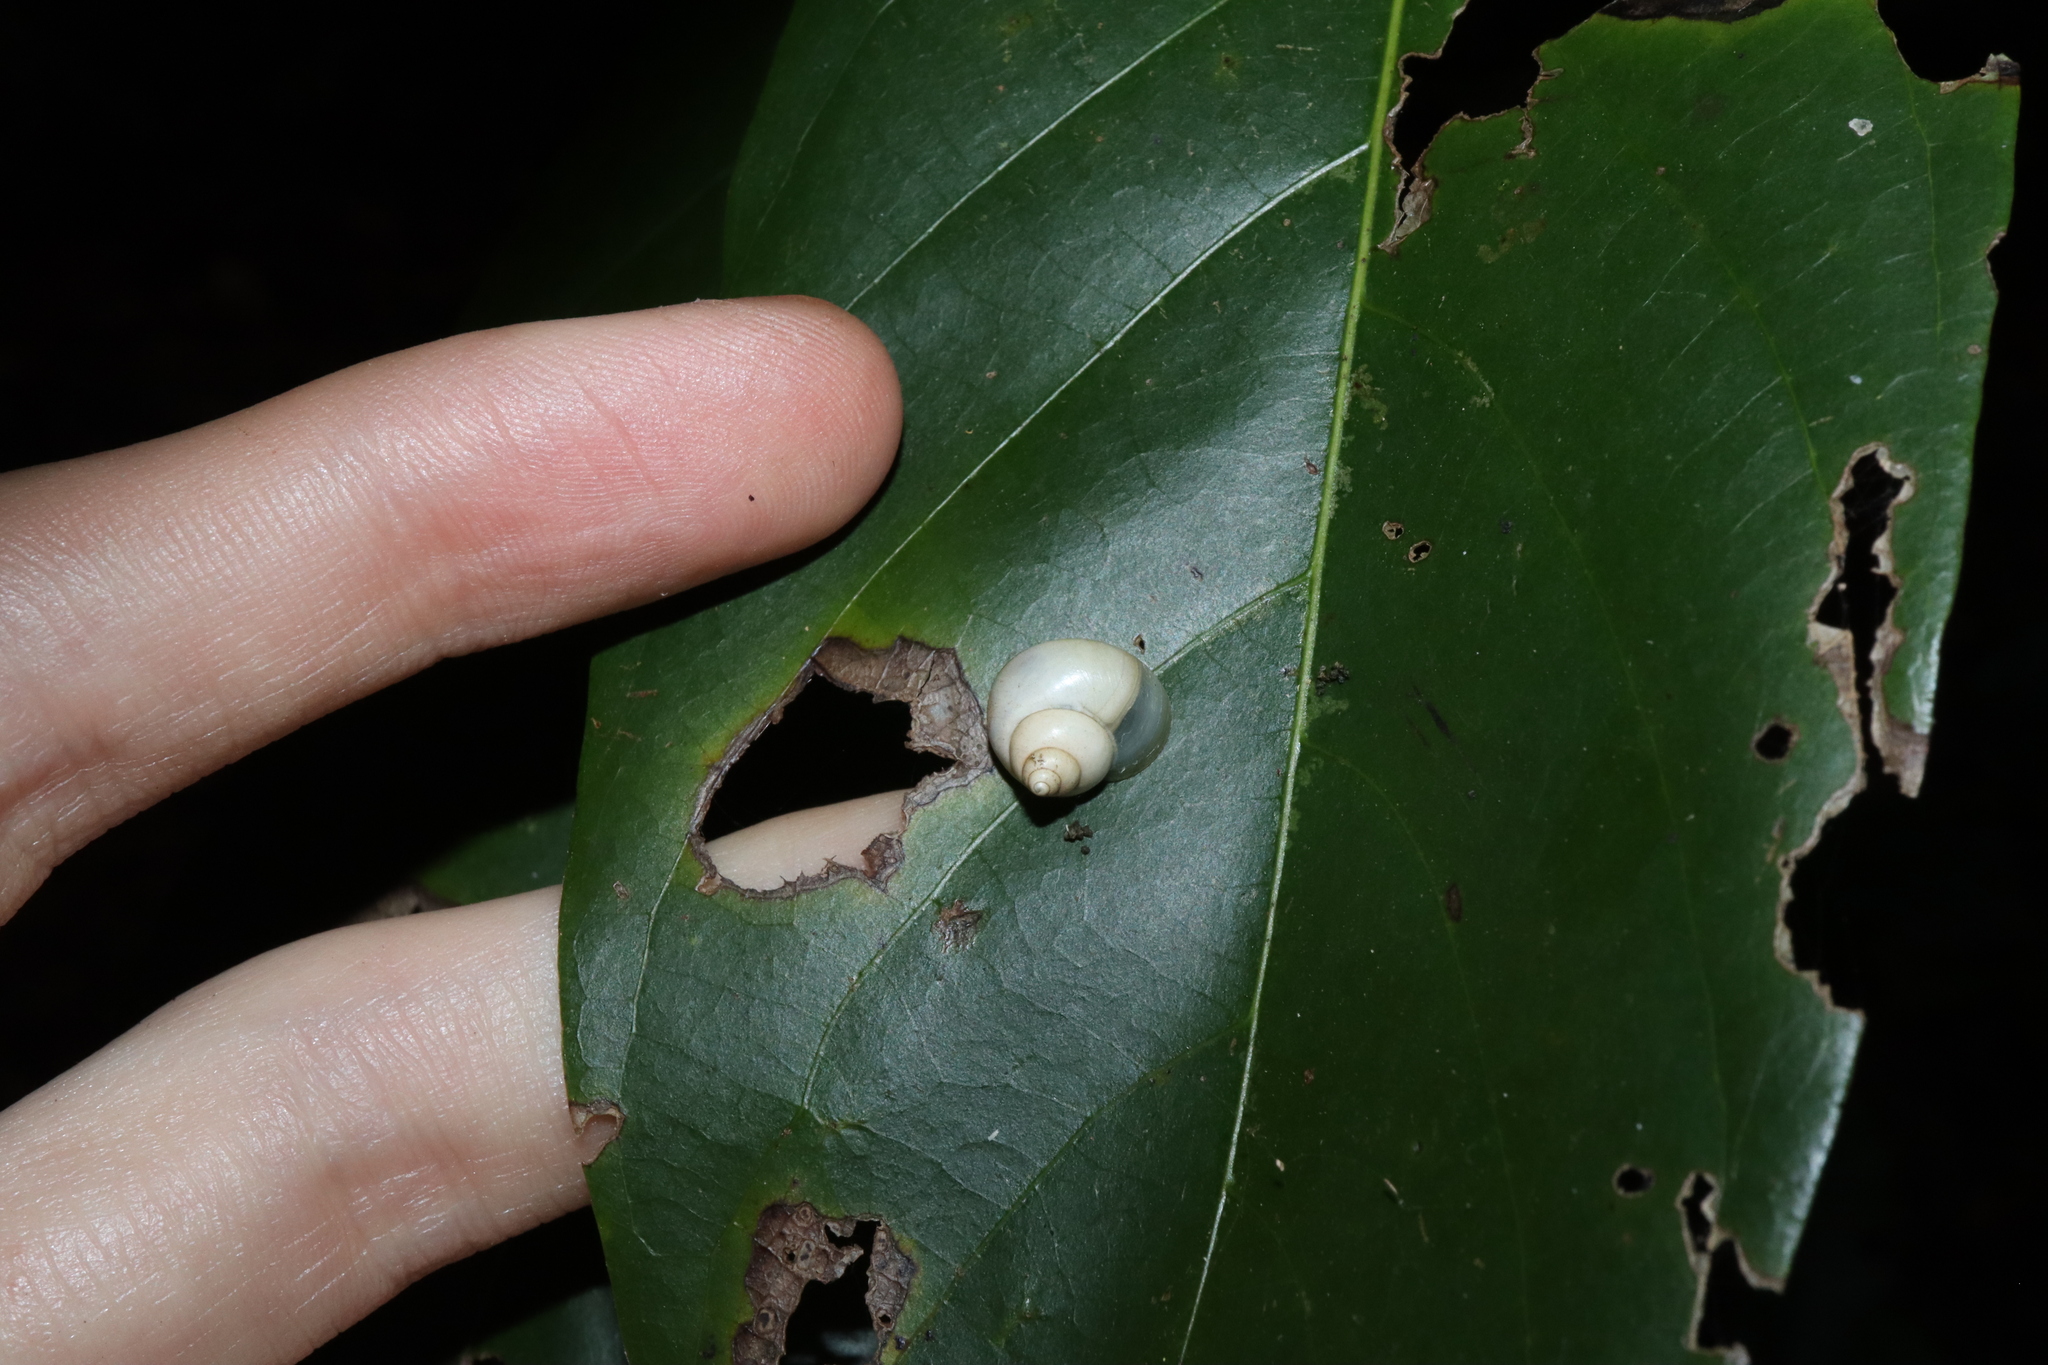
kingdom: Animalia
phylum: Mollusca
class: Gastropoda
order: Architaenioglossa
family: Cyclophoridae
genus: Leptopoma
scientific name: Leptopoma perlucidum
